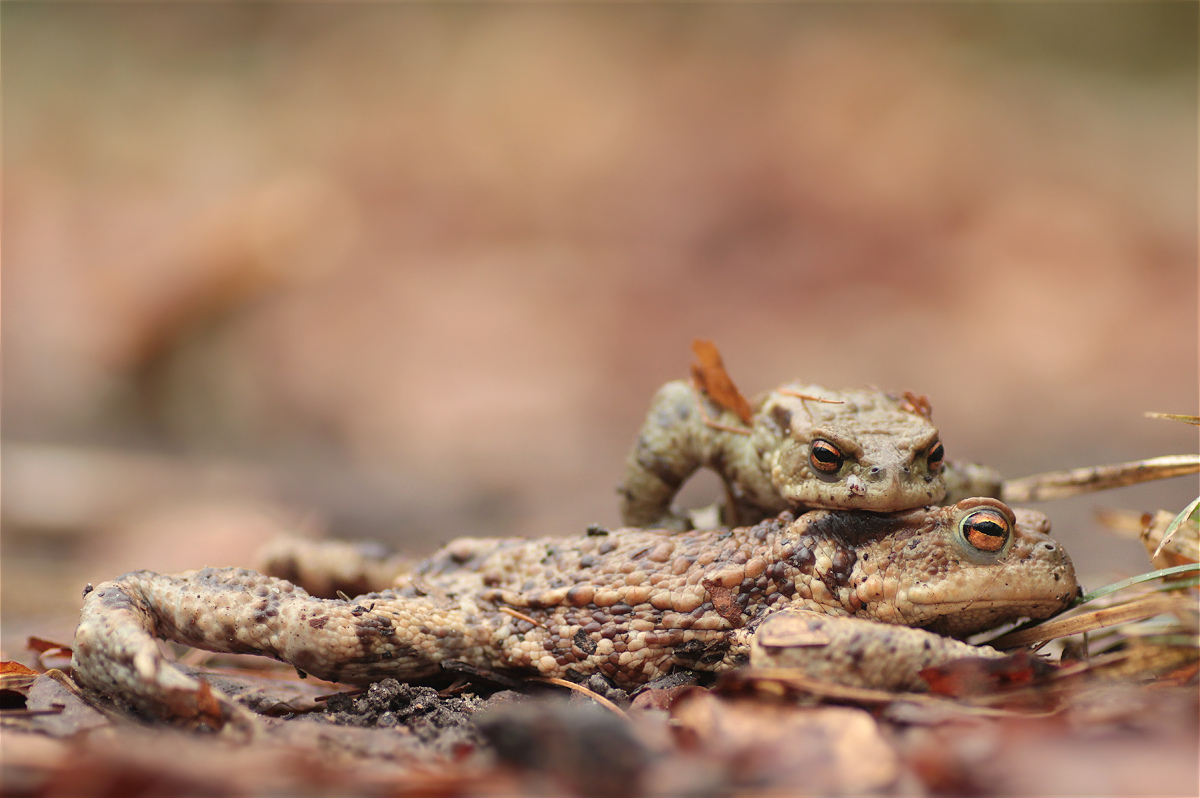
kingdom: Animalia
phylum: Chordata
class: Amphibia
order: Anura
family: Bufonidae
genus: Bufo
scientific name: Bufo bufo
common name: Common toad
